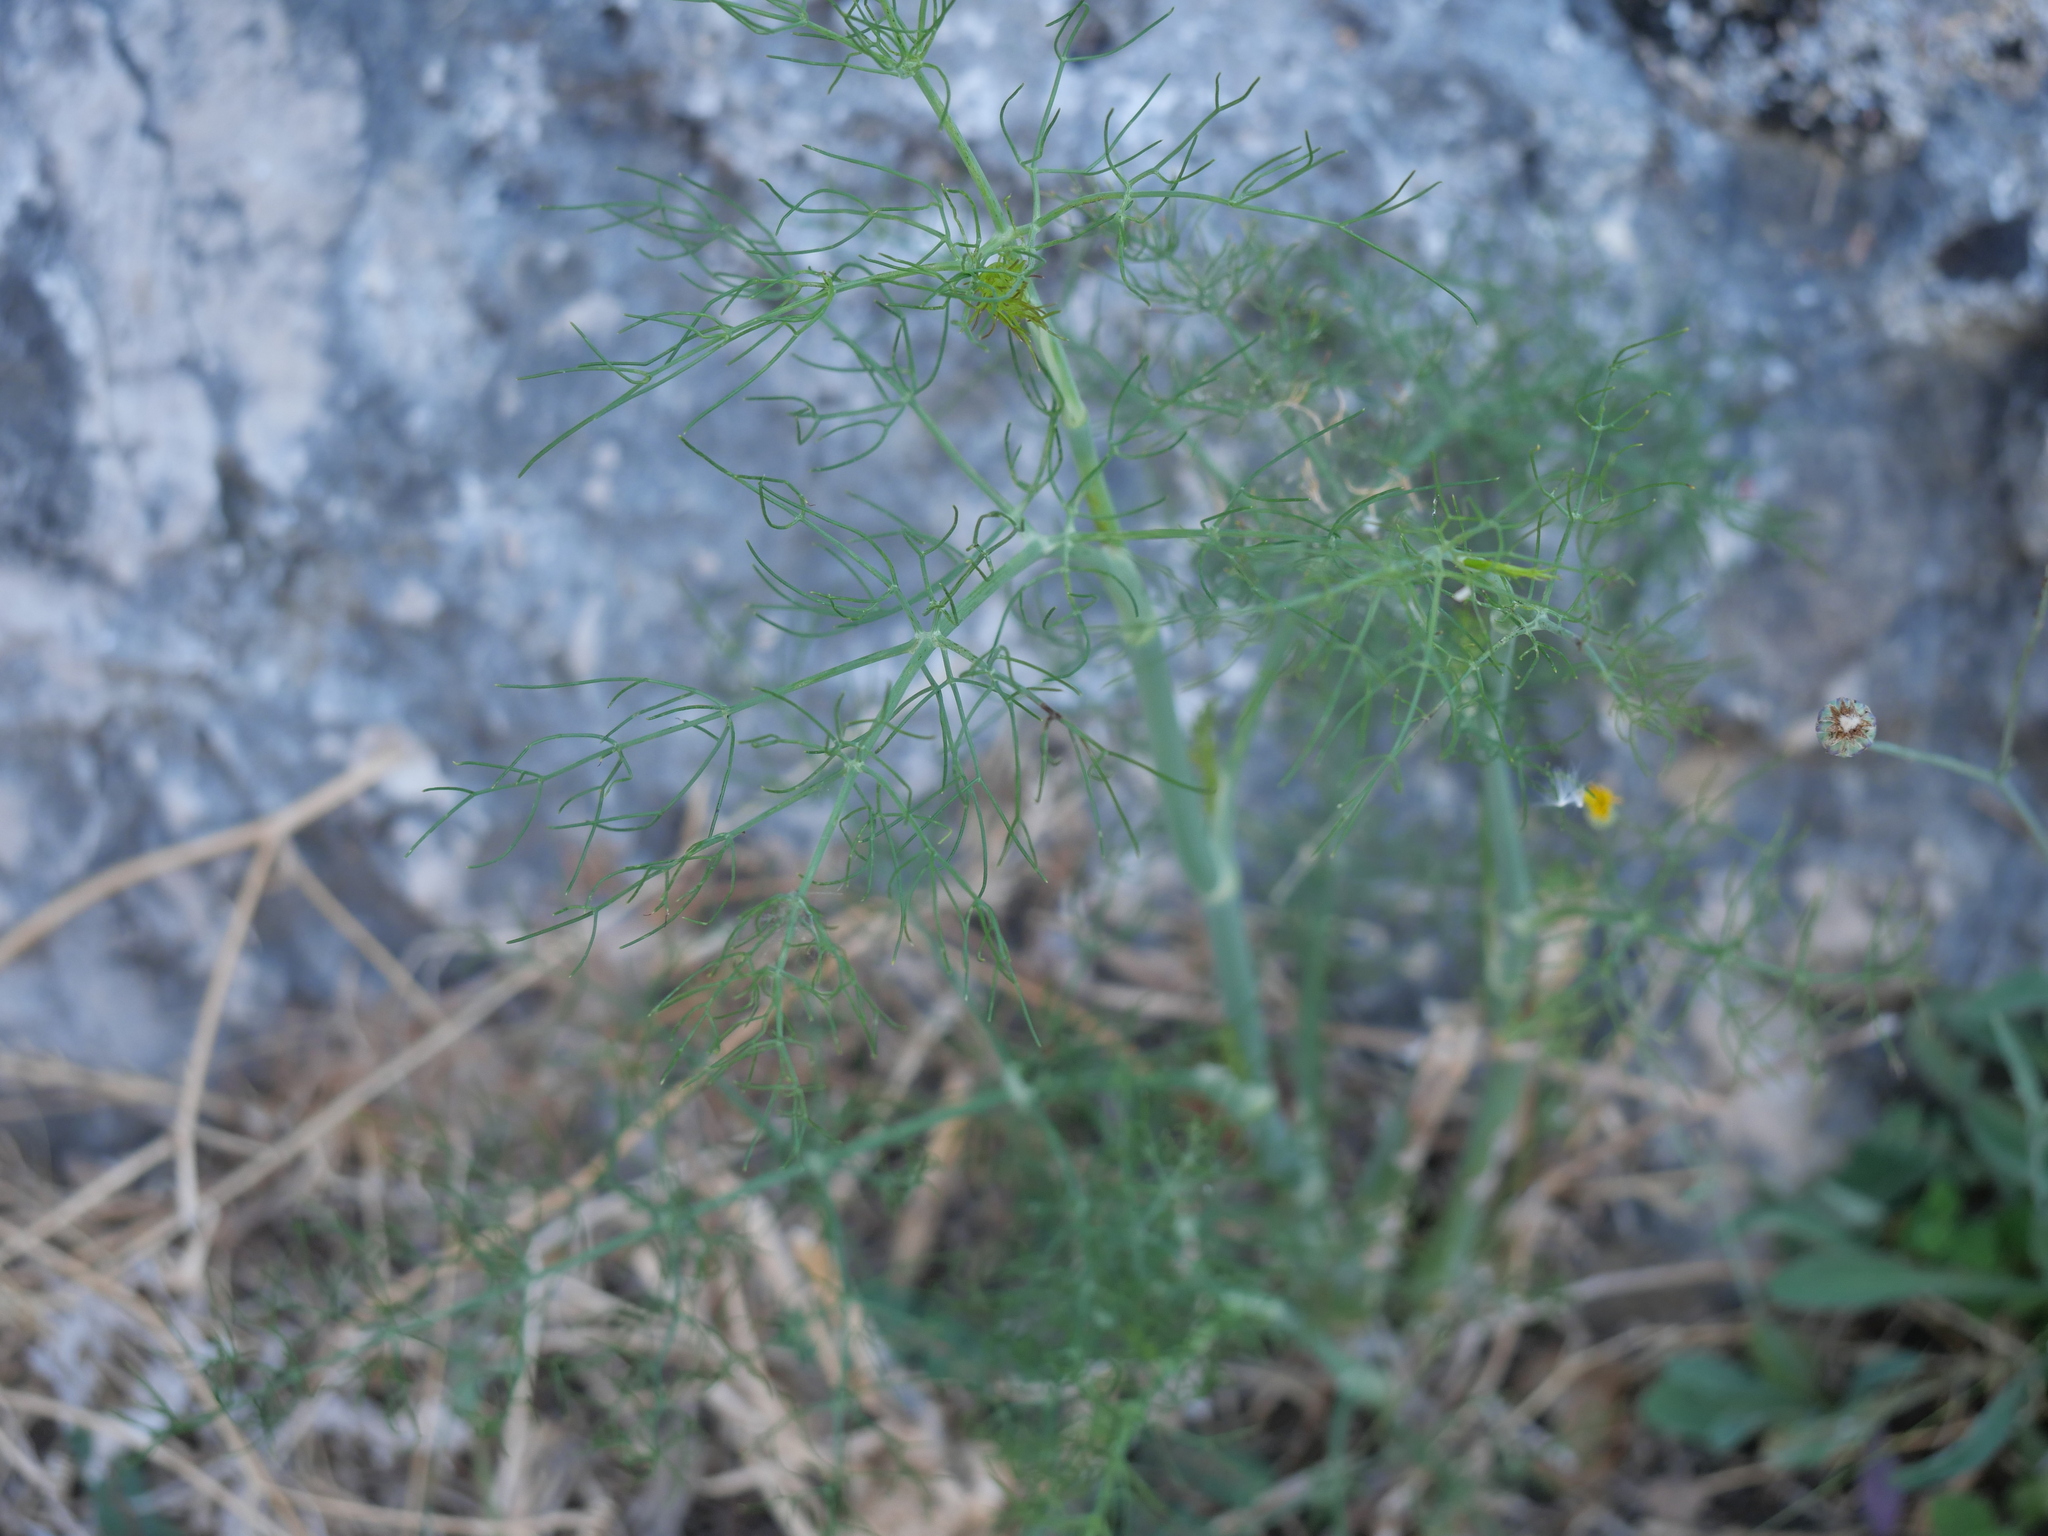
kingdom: Plantae
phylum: Tracheophyta
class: Magnoliopsida
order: Apiales
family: Apiaceae
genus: Foeniculum
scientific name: Foeniculum vulgare
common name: Fennel
